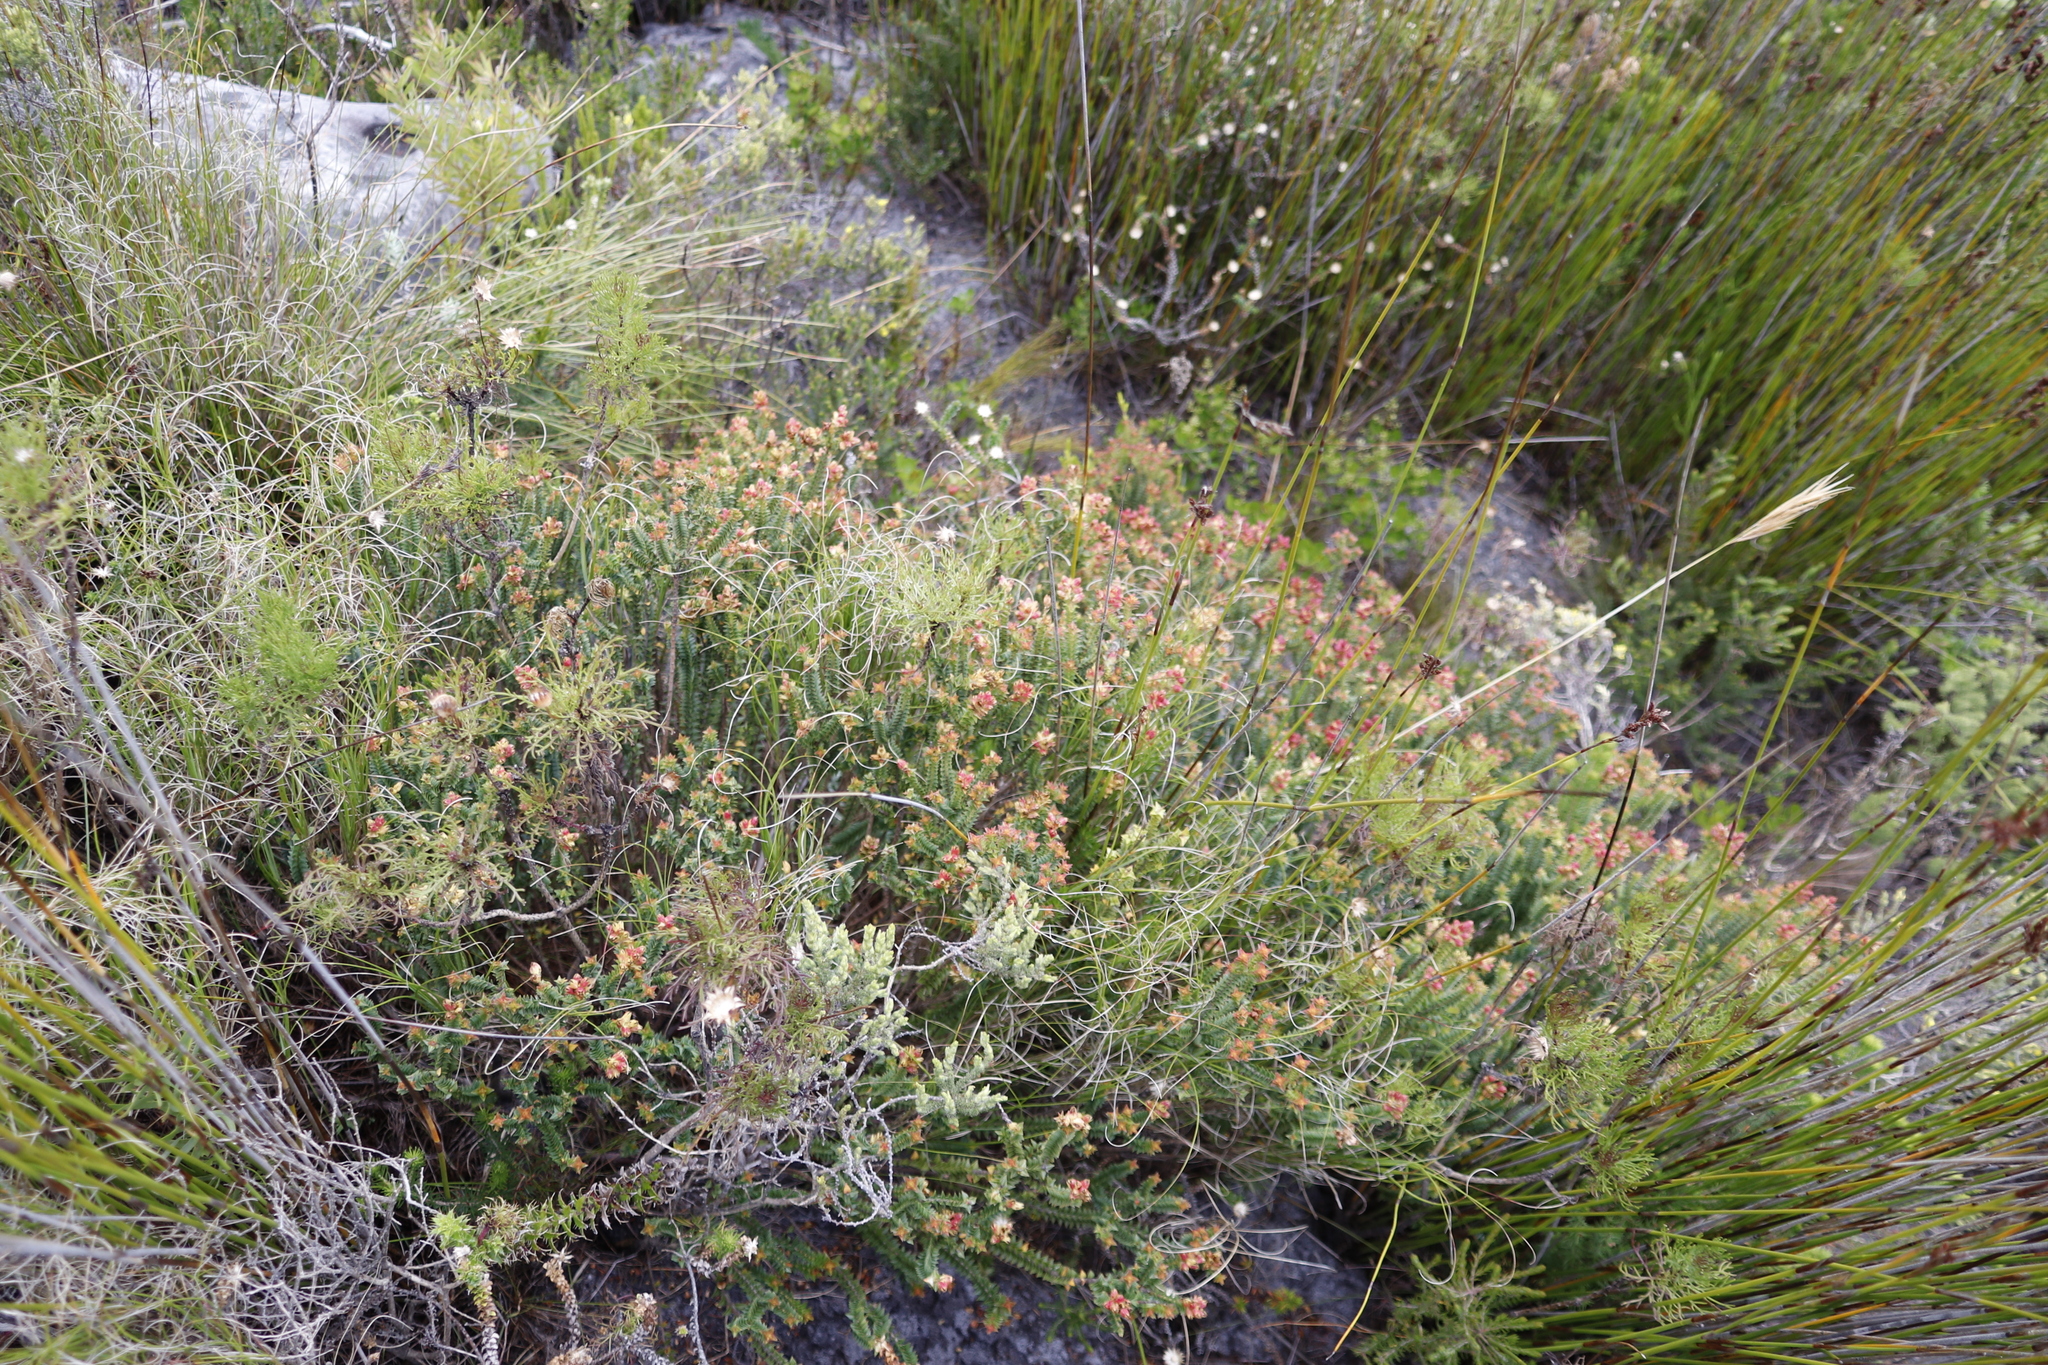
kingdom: Plantae
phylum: Tracheophyta
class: Magnoliopsida
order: Myrtales
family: Penaeaceae
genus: Penaea
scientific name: Penaea mucronata
